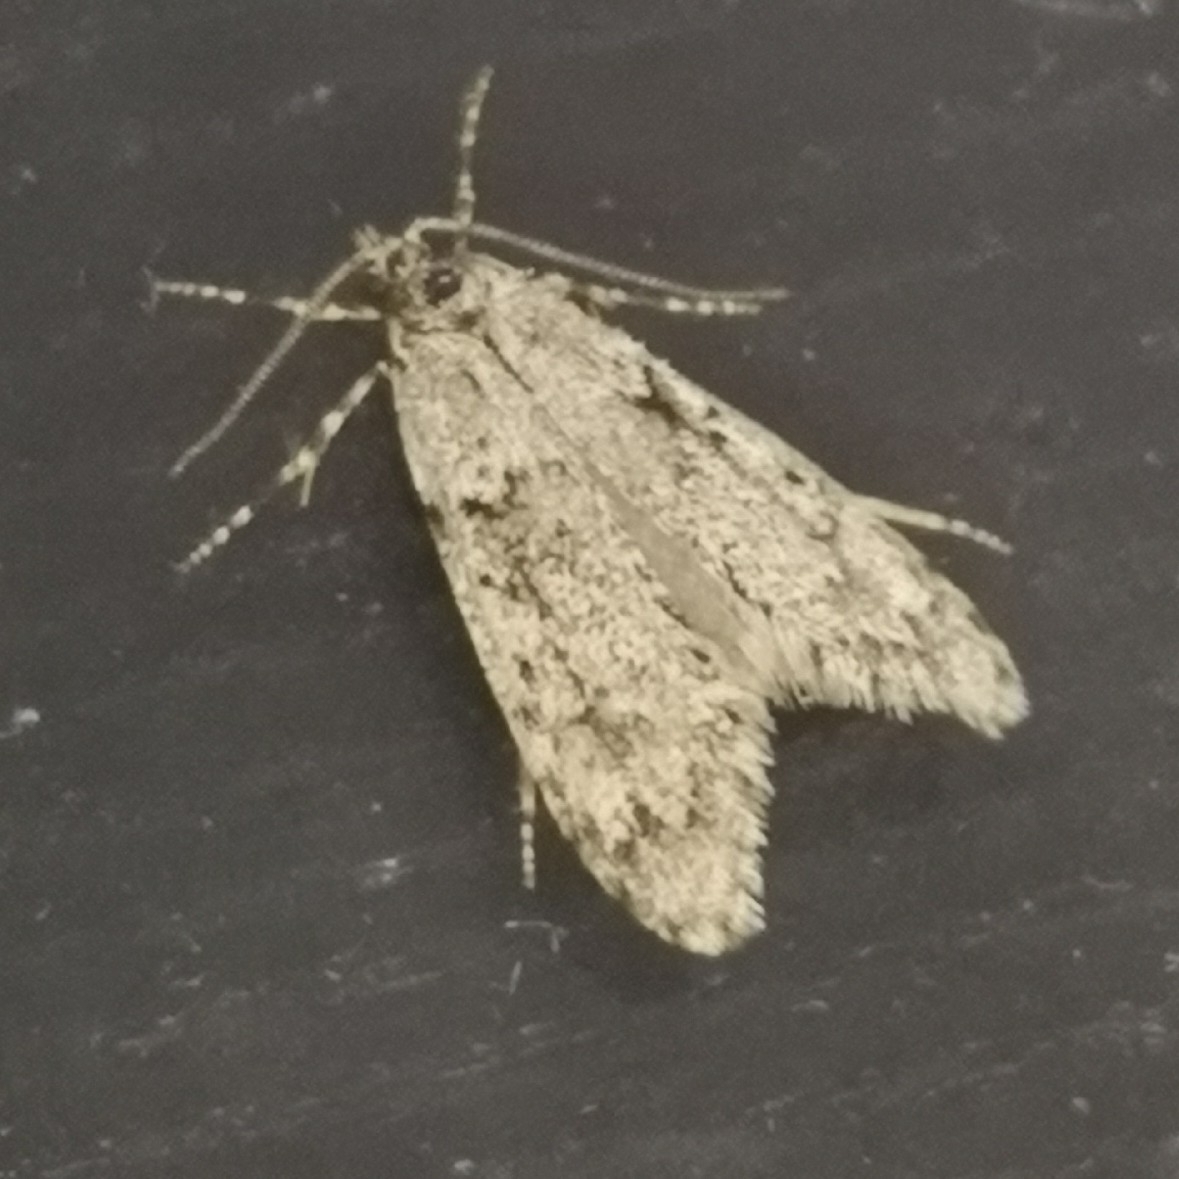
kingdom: Animalia
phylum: Arthropoda
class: Insecta
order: Lepidoptera
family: Lypusidae
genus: Diurnea
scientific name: Diurnea fagella
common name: March tubic
